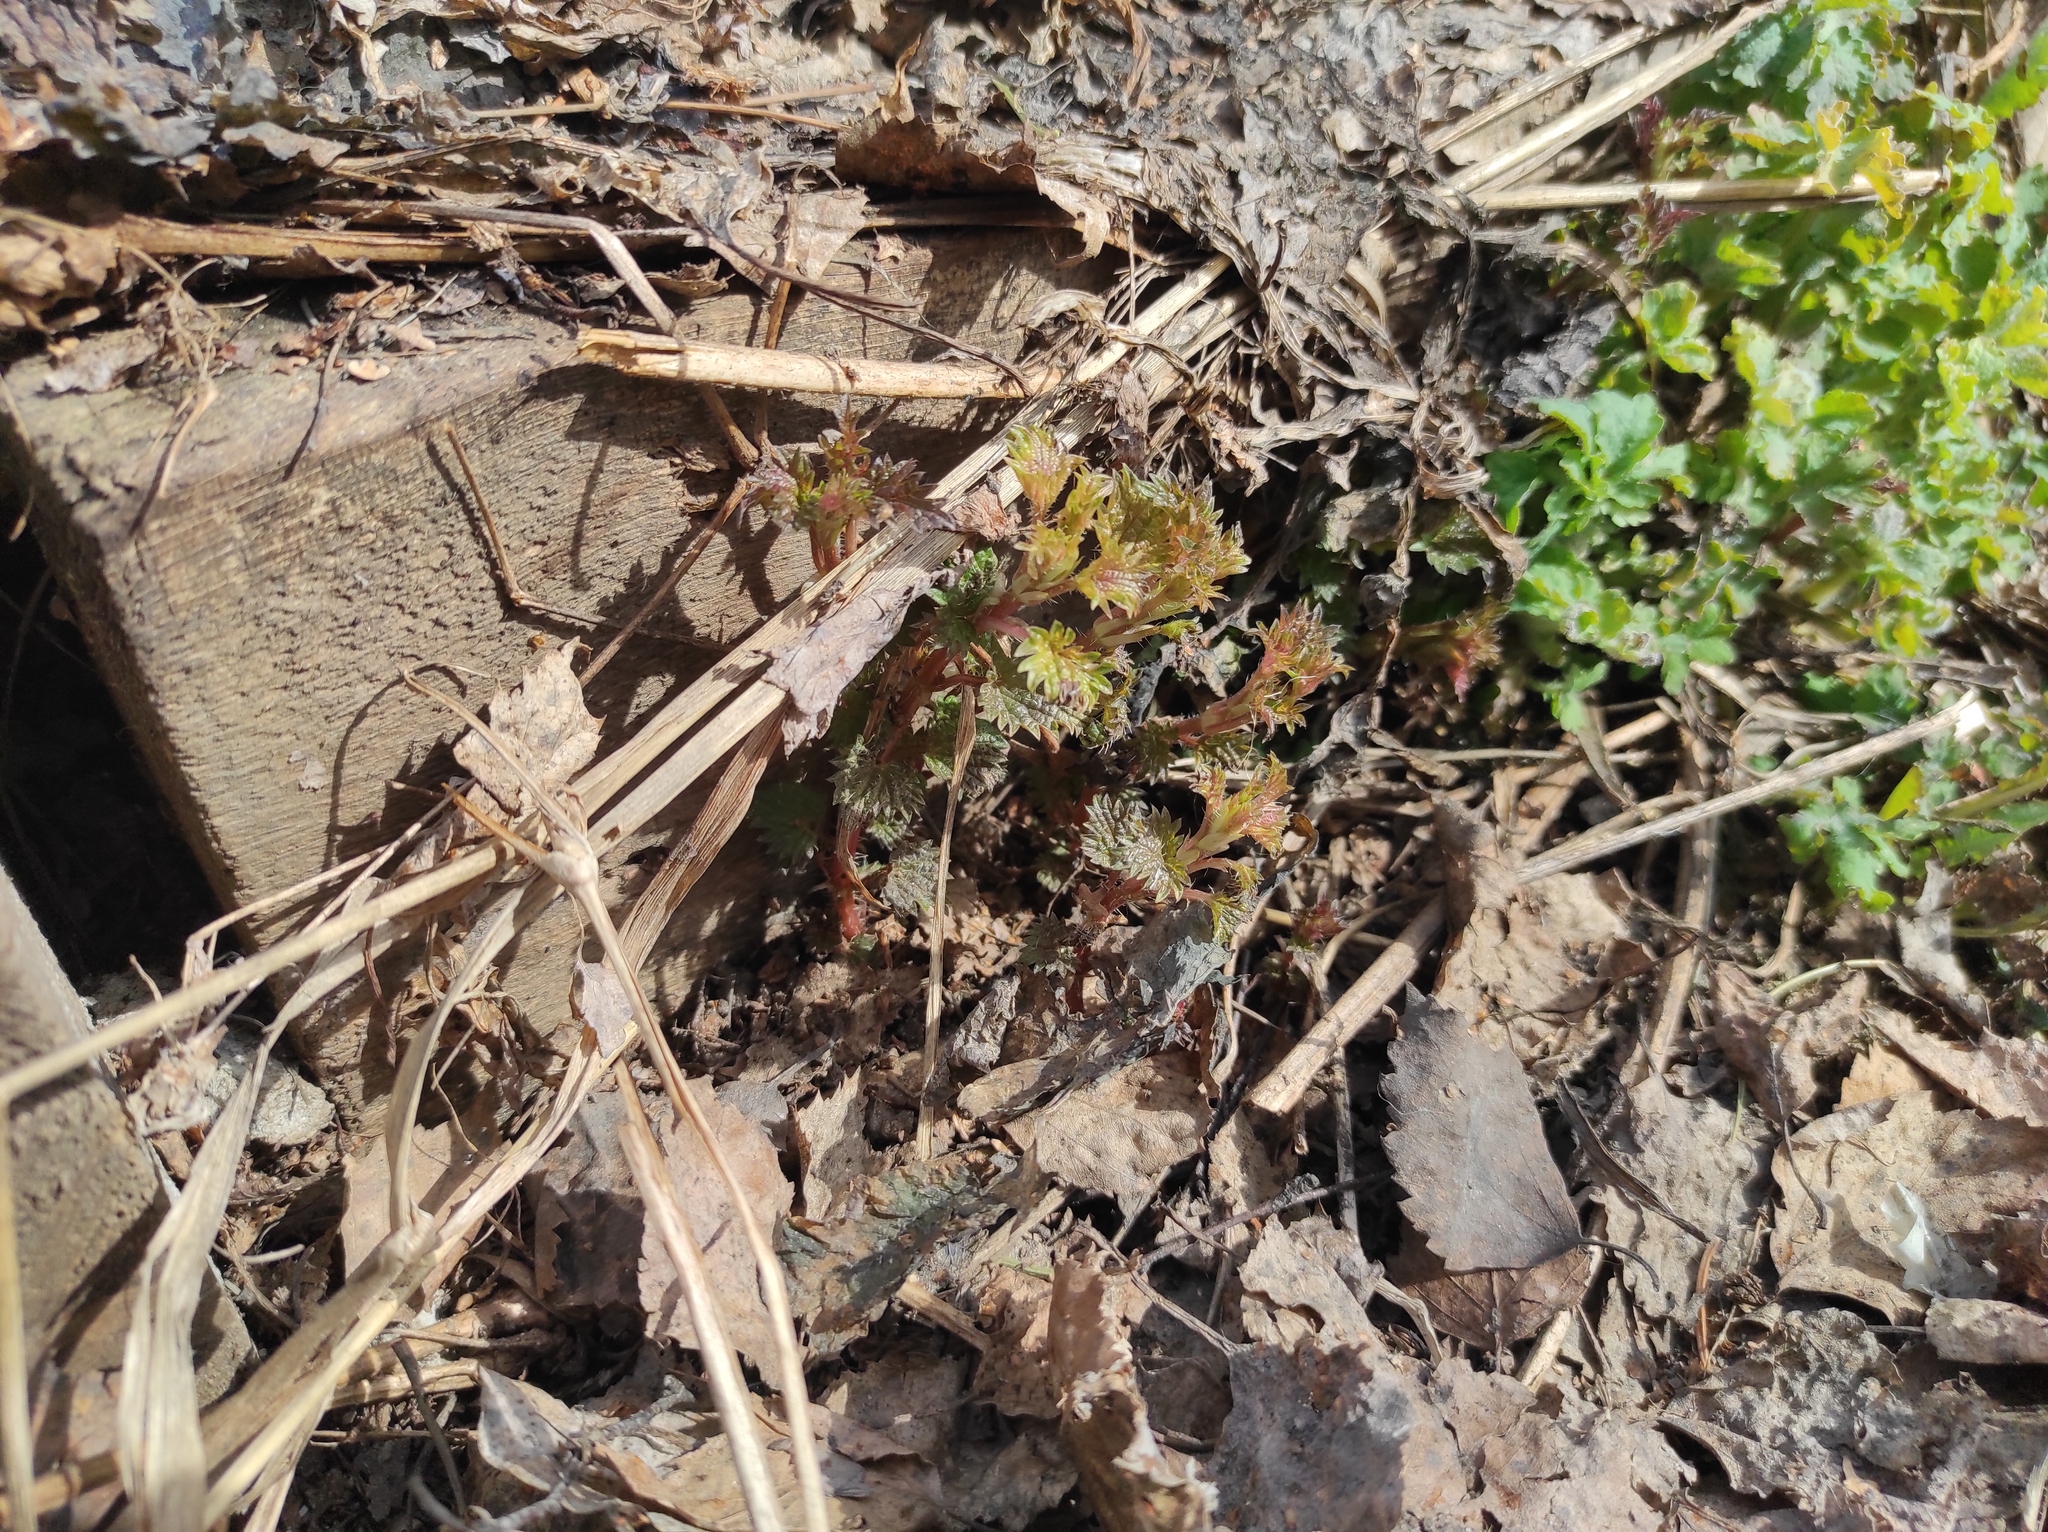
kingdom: Plantae
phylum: Tracheophyta
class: Magnoliopsida
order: Rosales
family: Urticaceae
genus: Urtica
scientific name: Urtica dioica
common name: Common nettle
